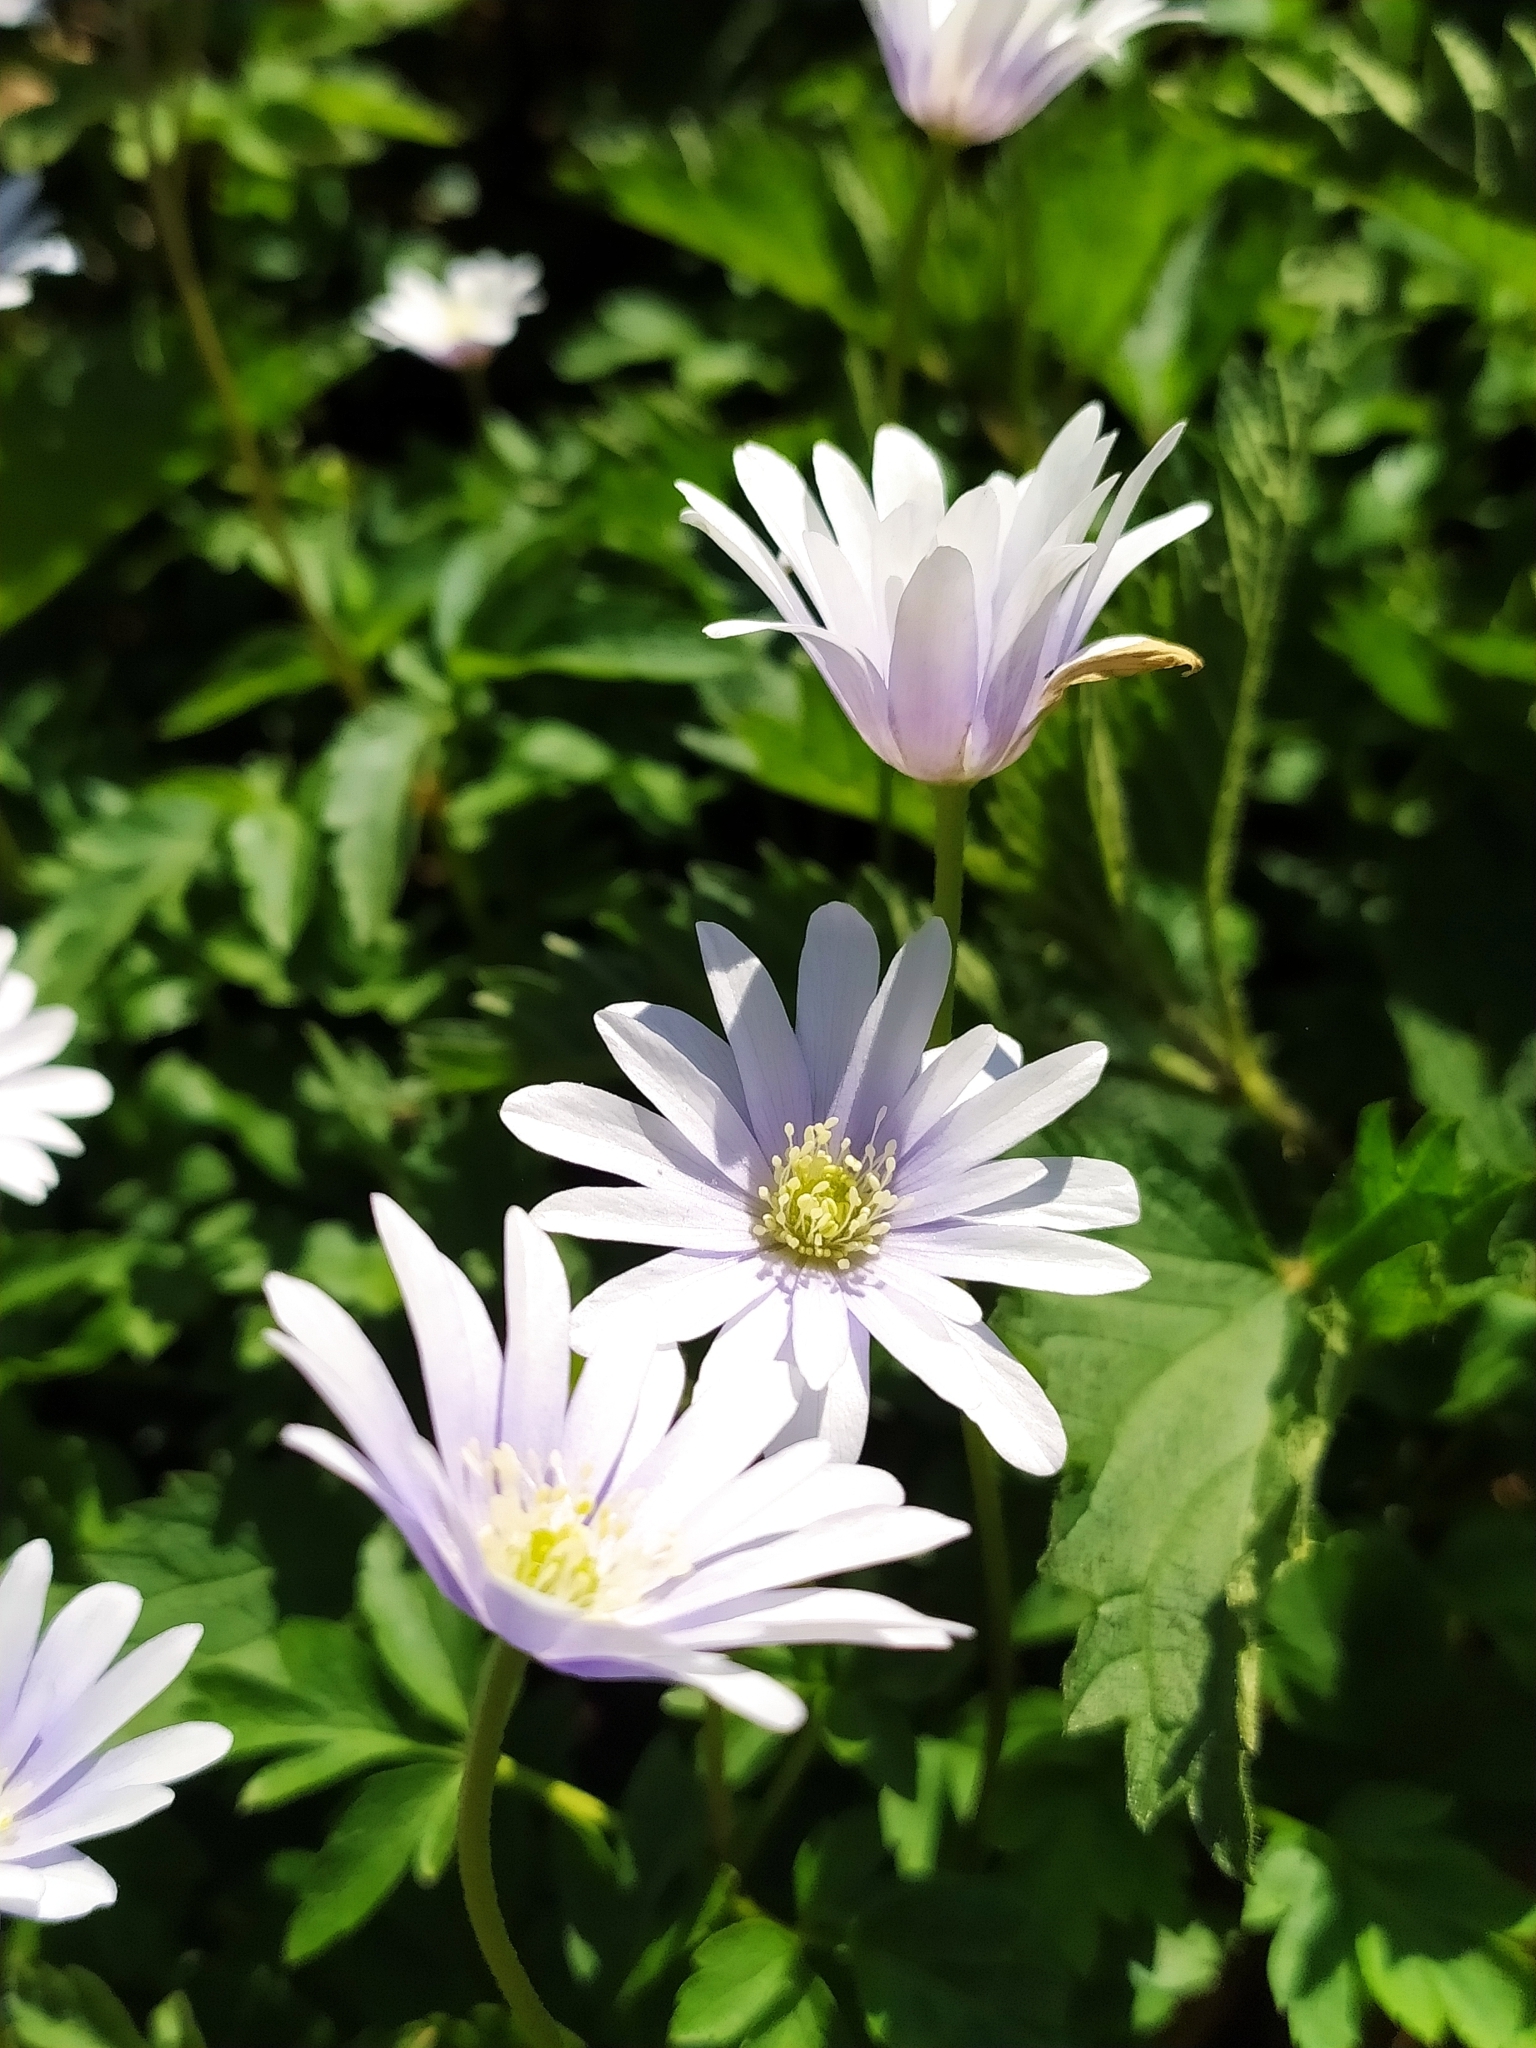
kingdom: Plantae
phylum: Tracheophyta
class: Magnoliopsida
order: Ranunculales
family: Ranunculaceae
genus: Anemone
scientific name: Anemone apennina
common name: Blue anemone
